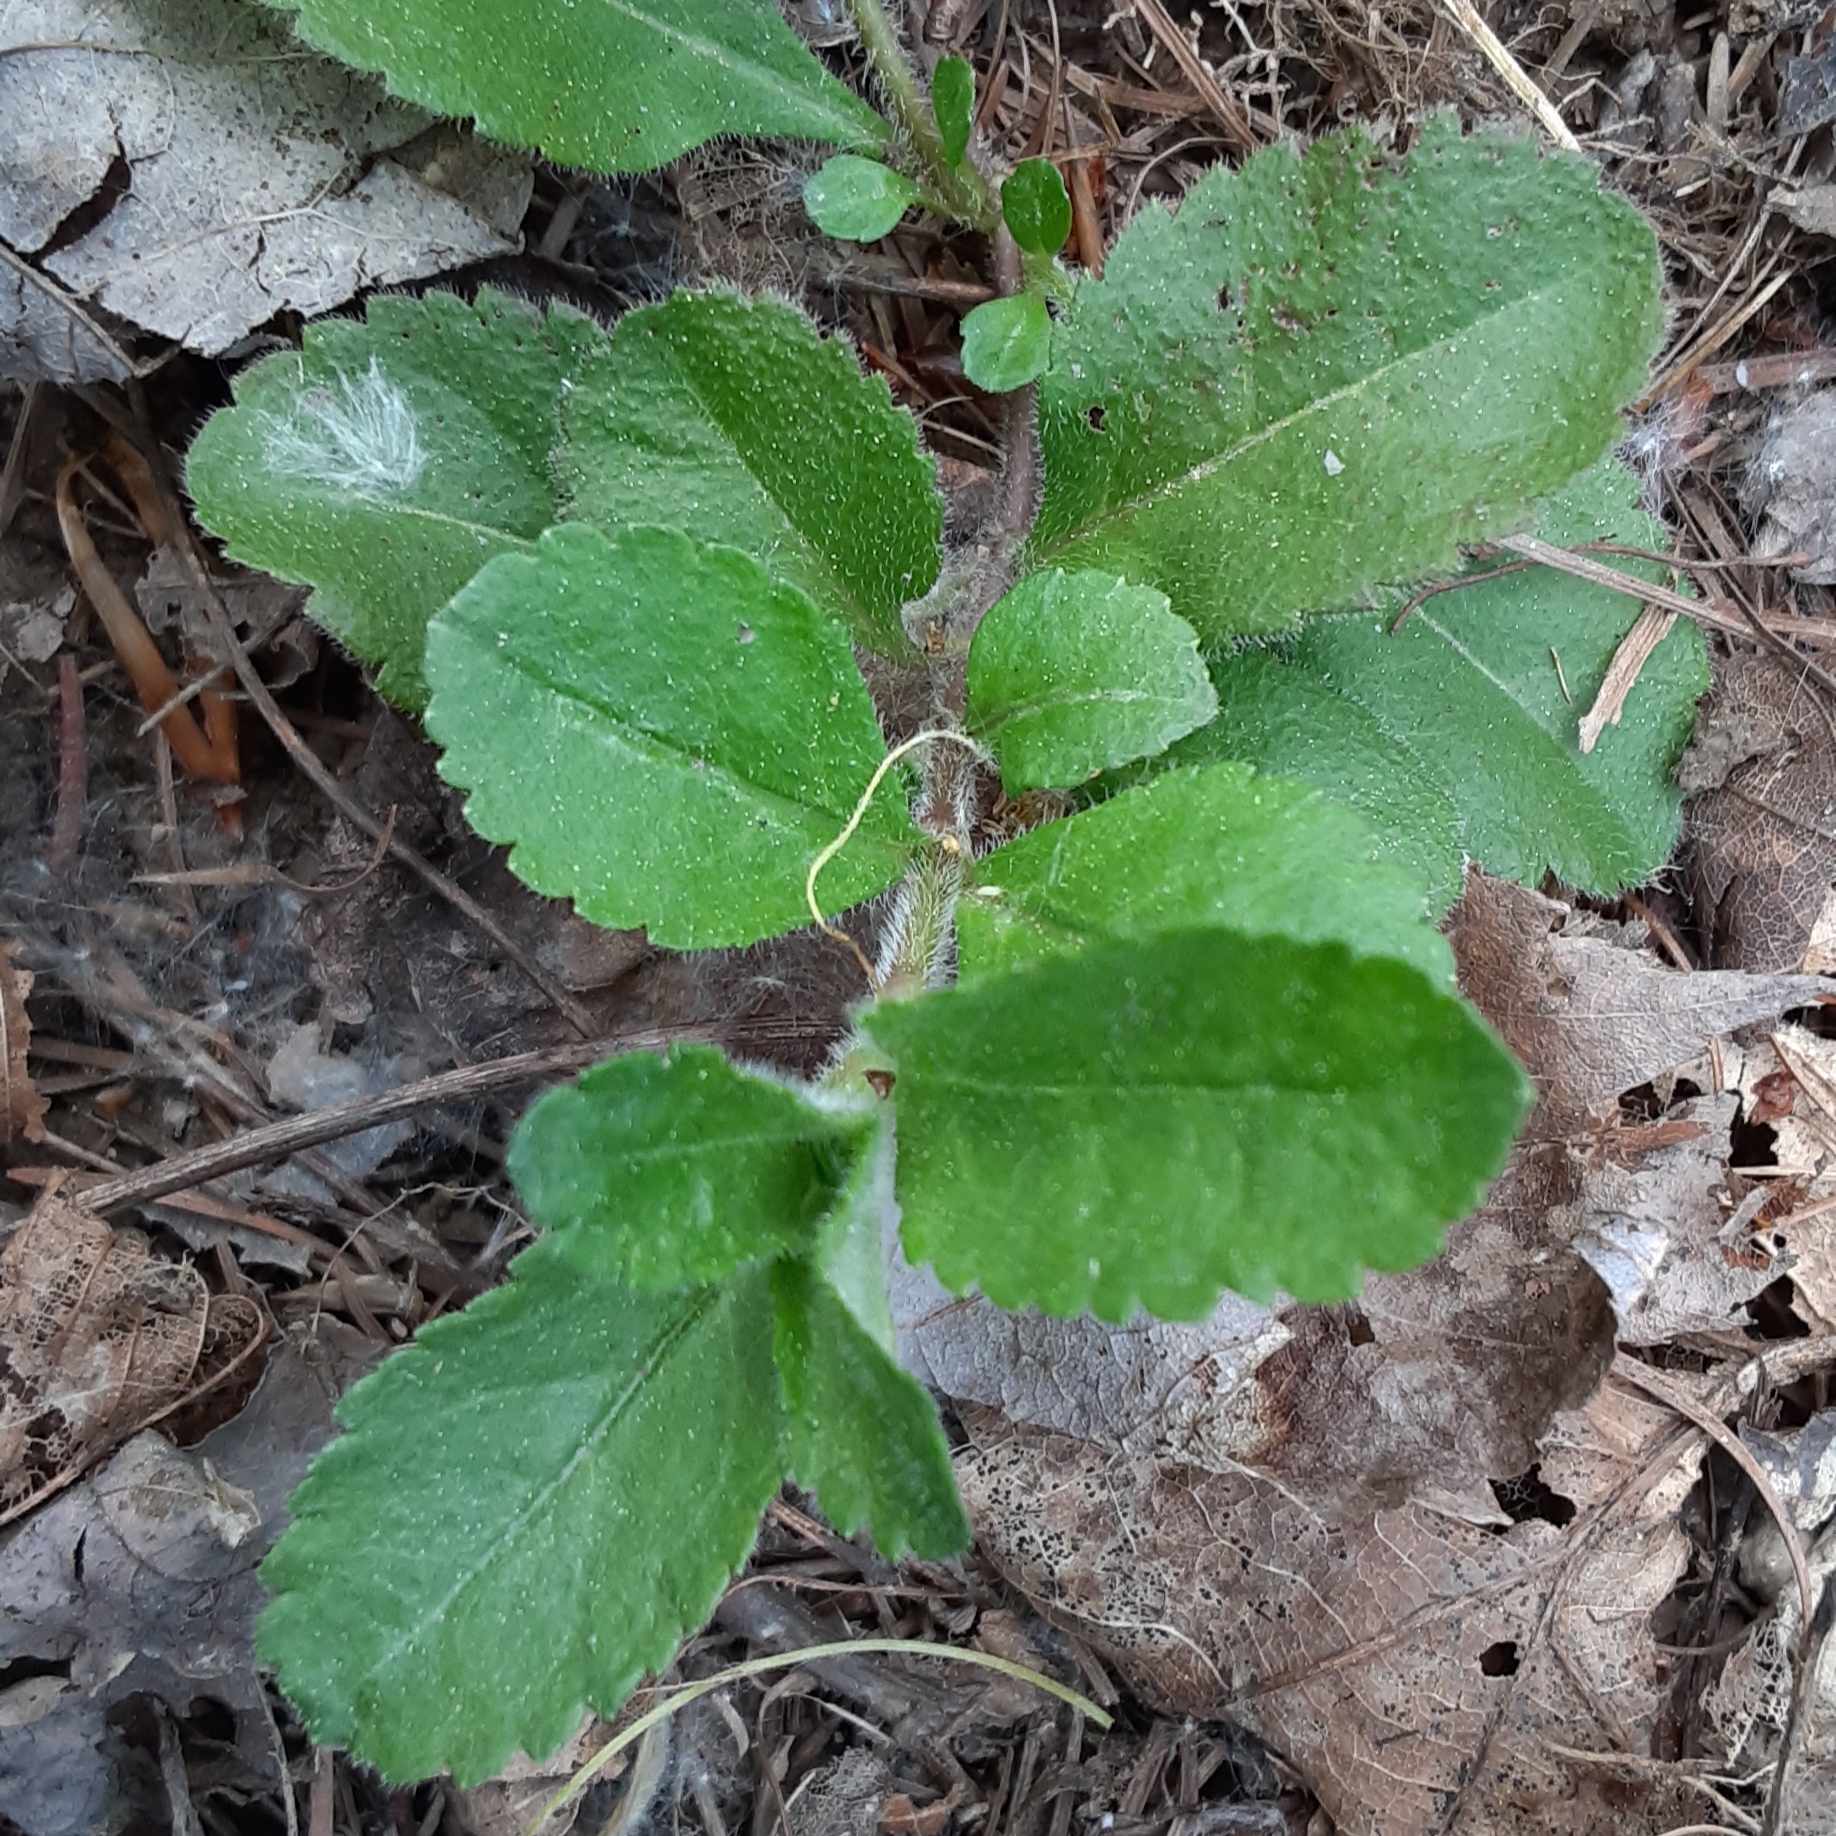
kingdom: Plantae
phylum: Tracheophyta
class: Magnoliopsida
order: Lamiales
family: Plantaginaceae
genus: Veronica
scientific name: Veronica officinalis
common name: Common speedwell
